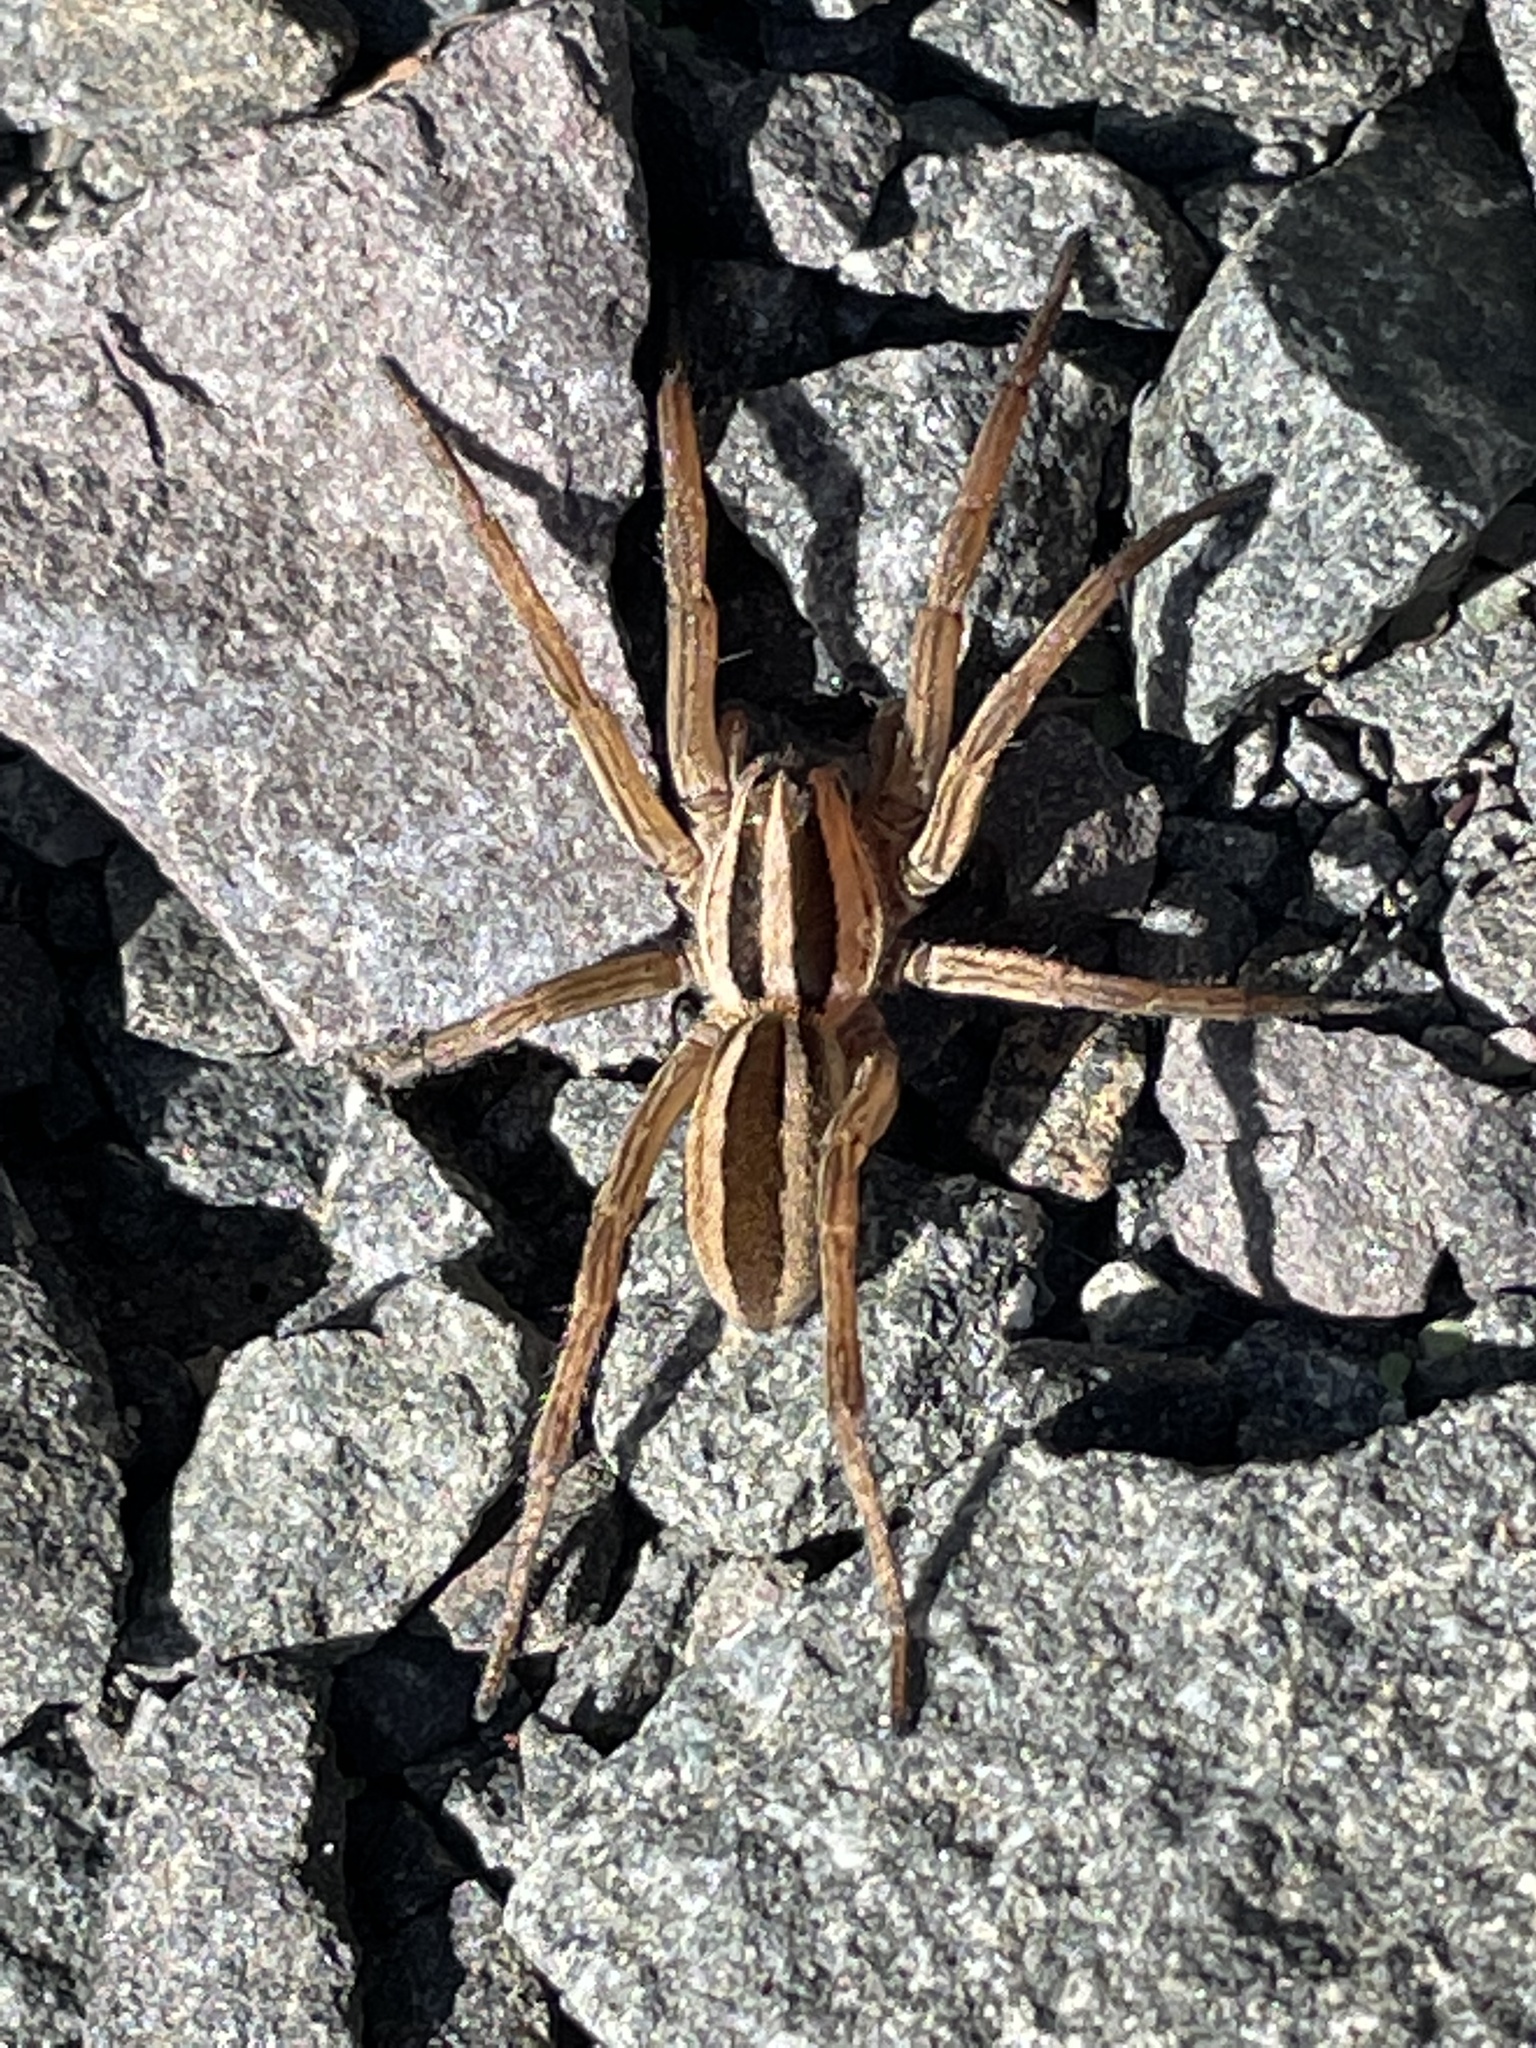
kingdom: Animalia
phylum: Arthropoda
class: Arachnida
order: Araneae
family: Lycosidae
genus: Rabidosa
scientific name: Rabidosa punctulata
